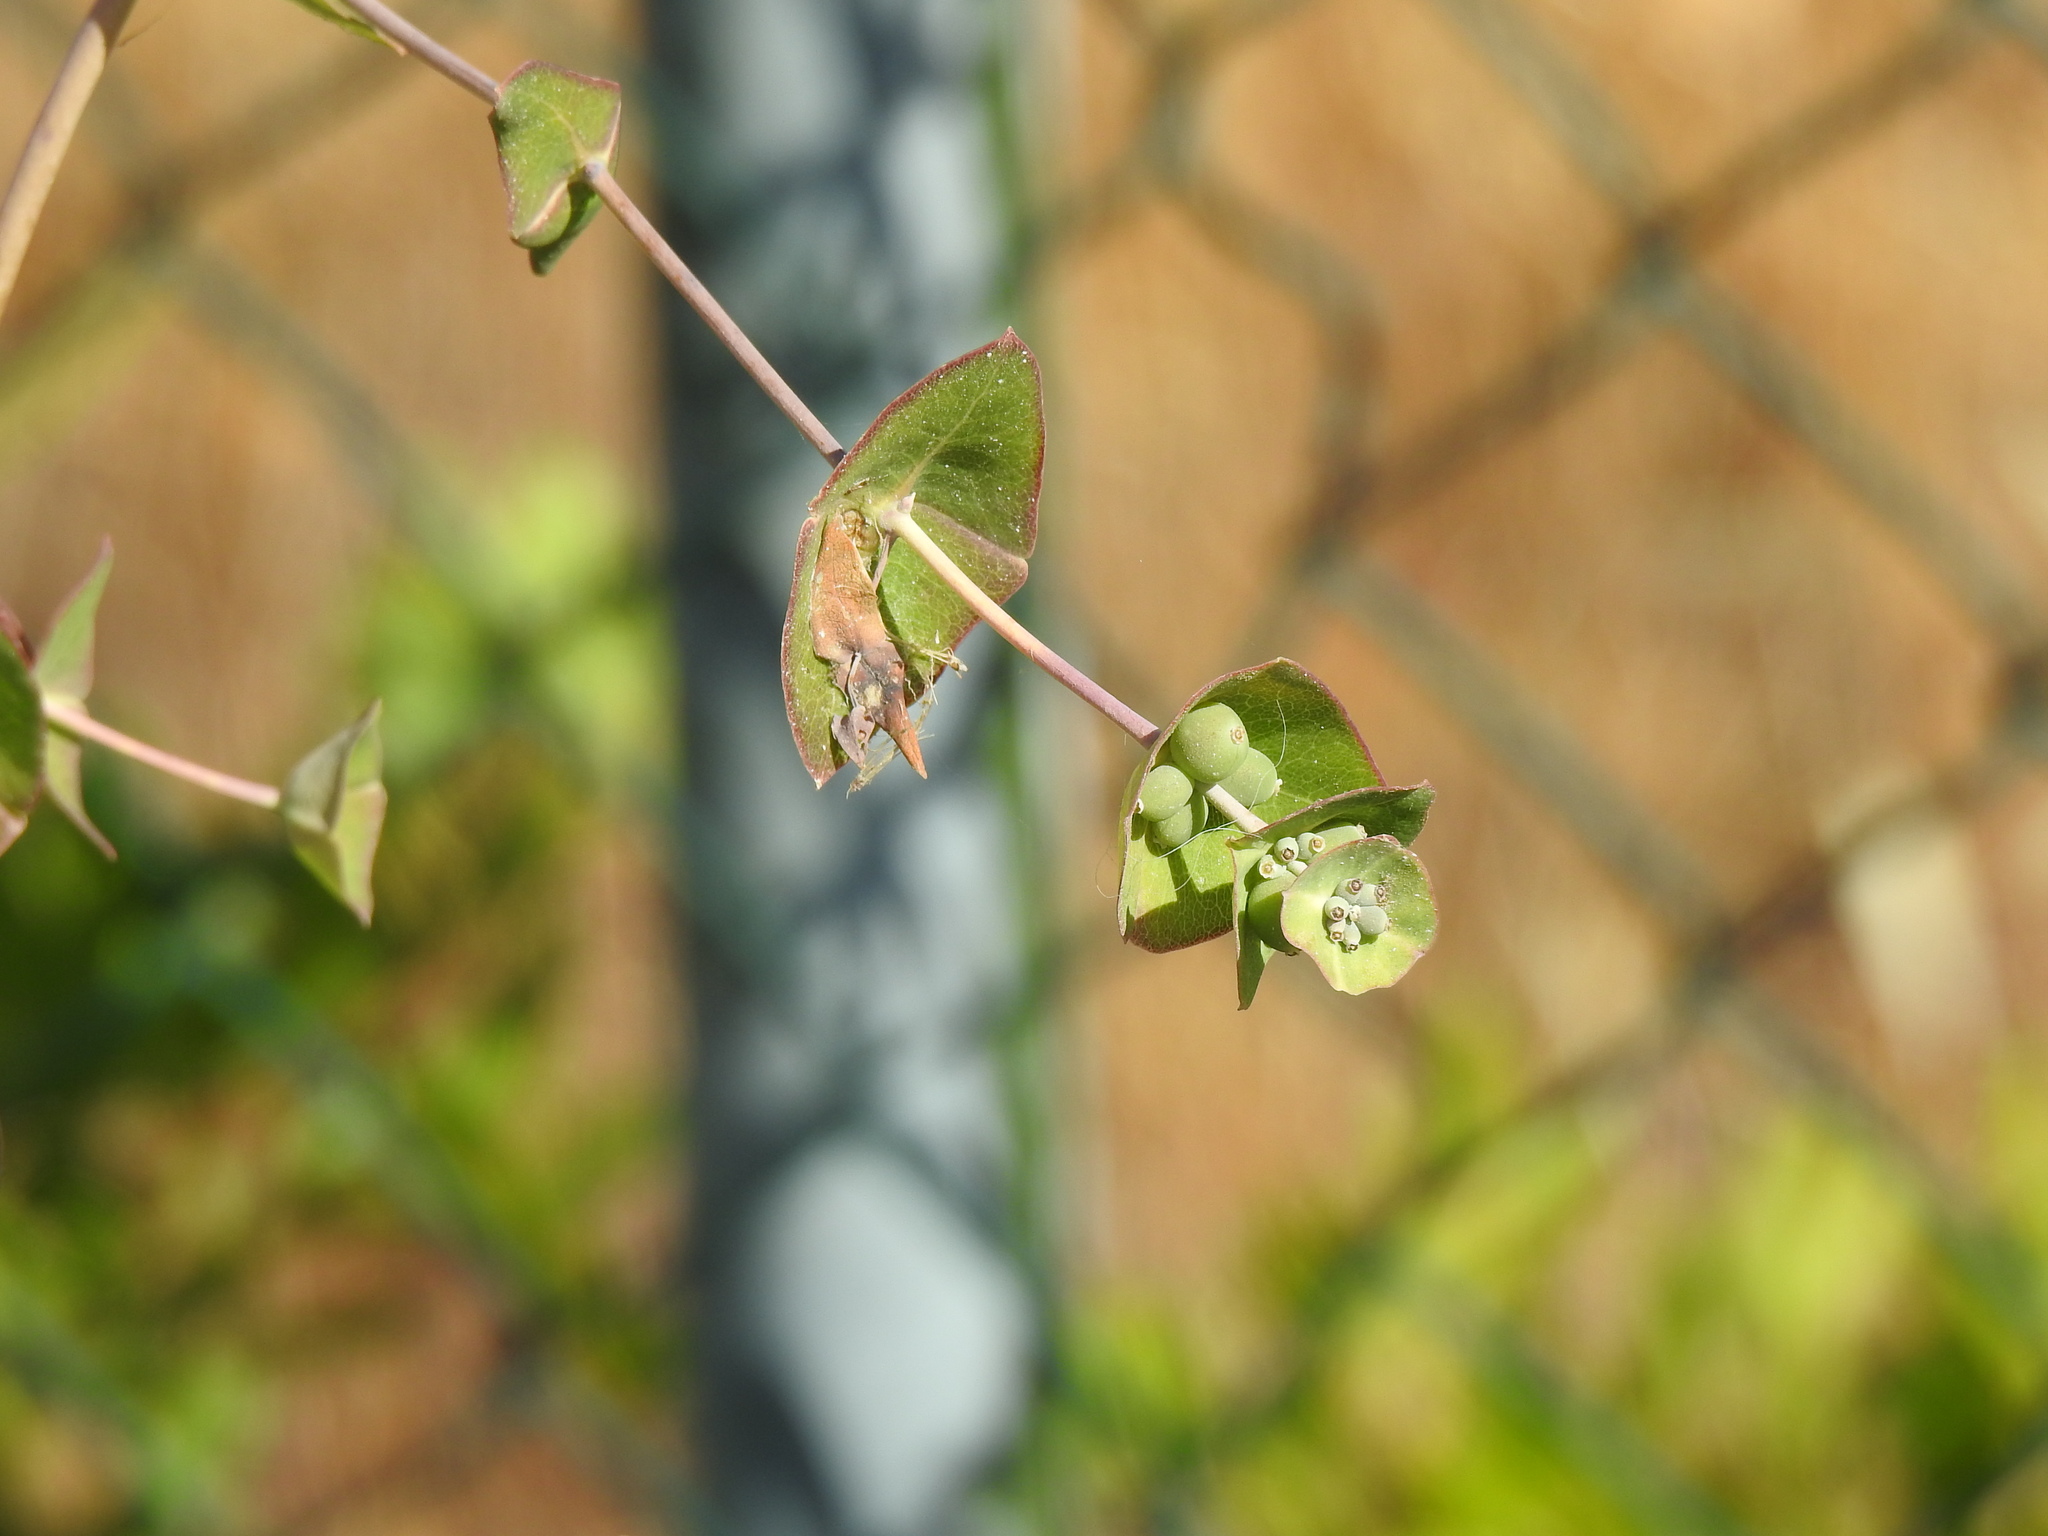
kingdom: Plantae
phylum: Tracheophyta
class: Magnoliopsida
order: Dipsacales
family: Caprifoliaceae
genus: Lonicera
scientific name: Lonicera implexa
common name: Minorca honeysuckle
